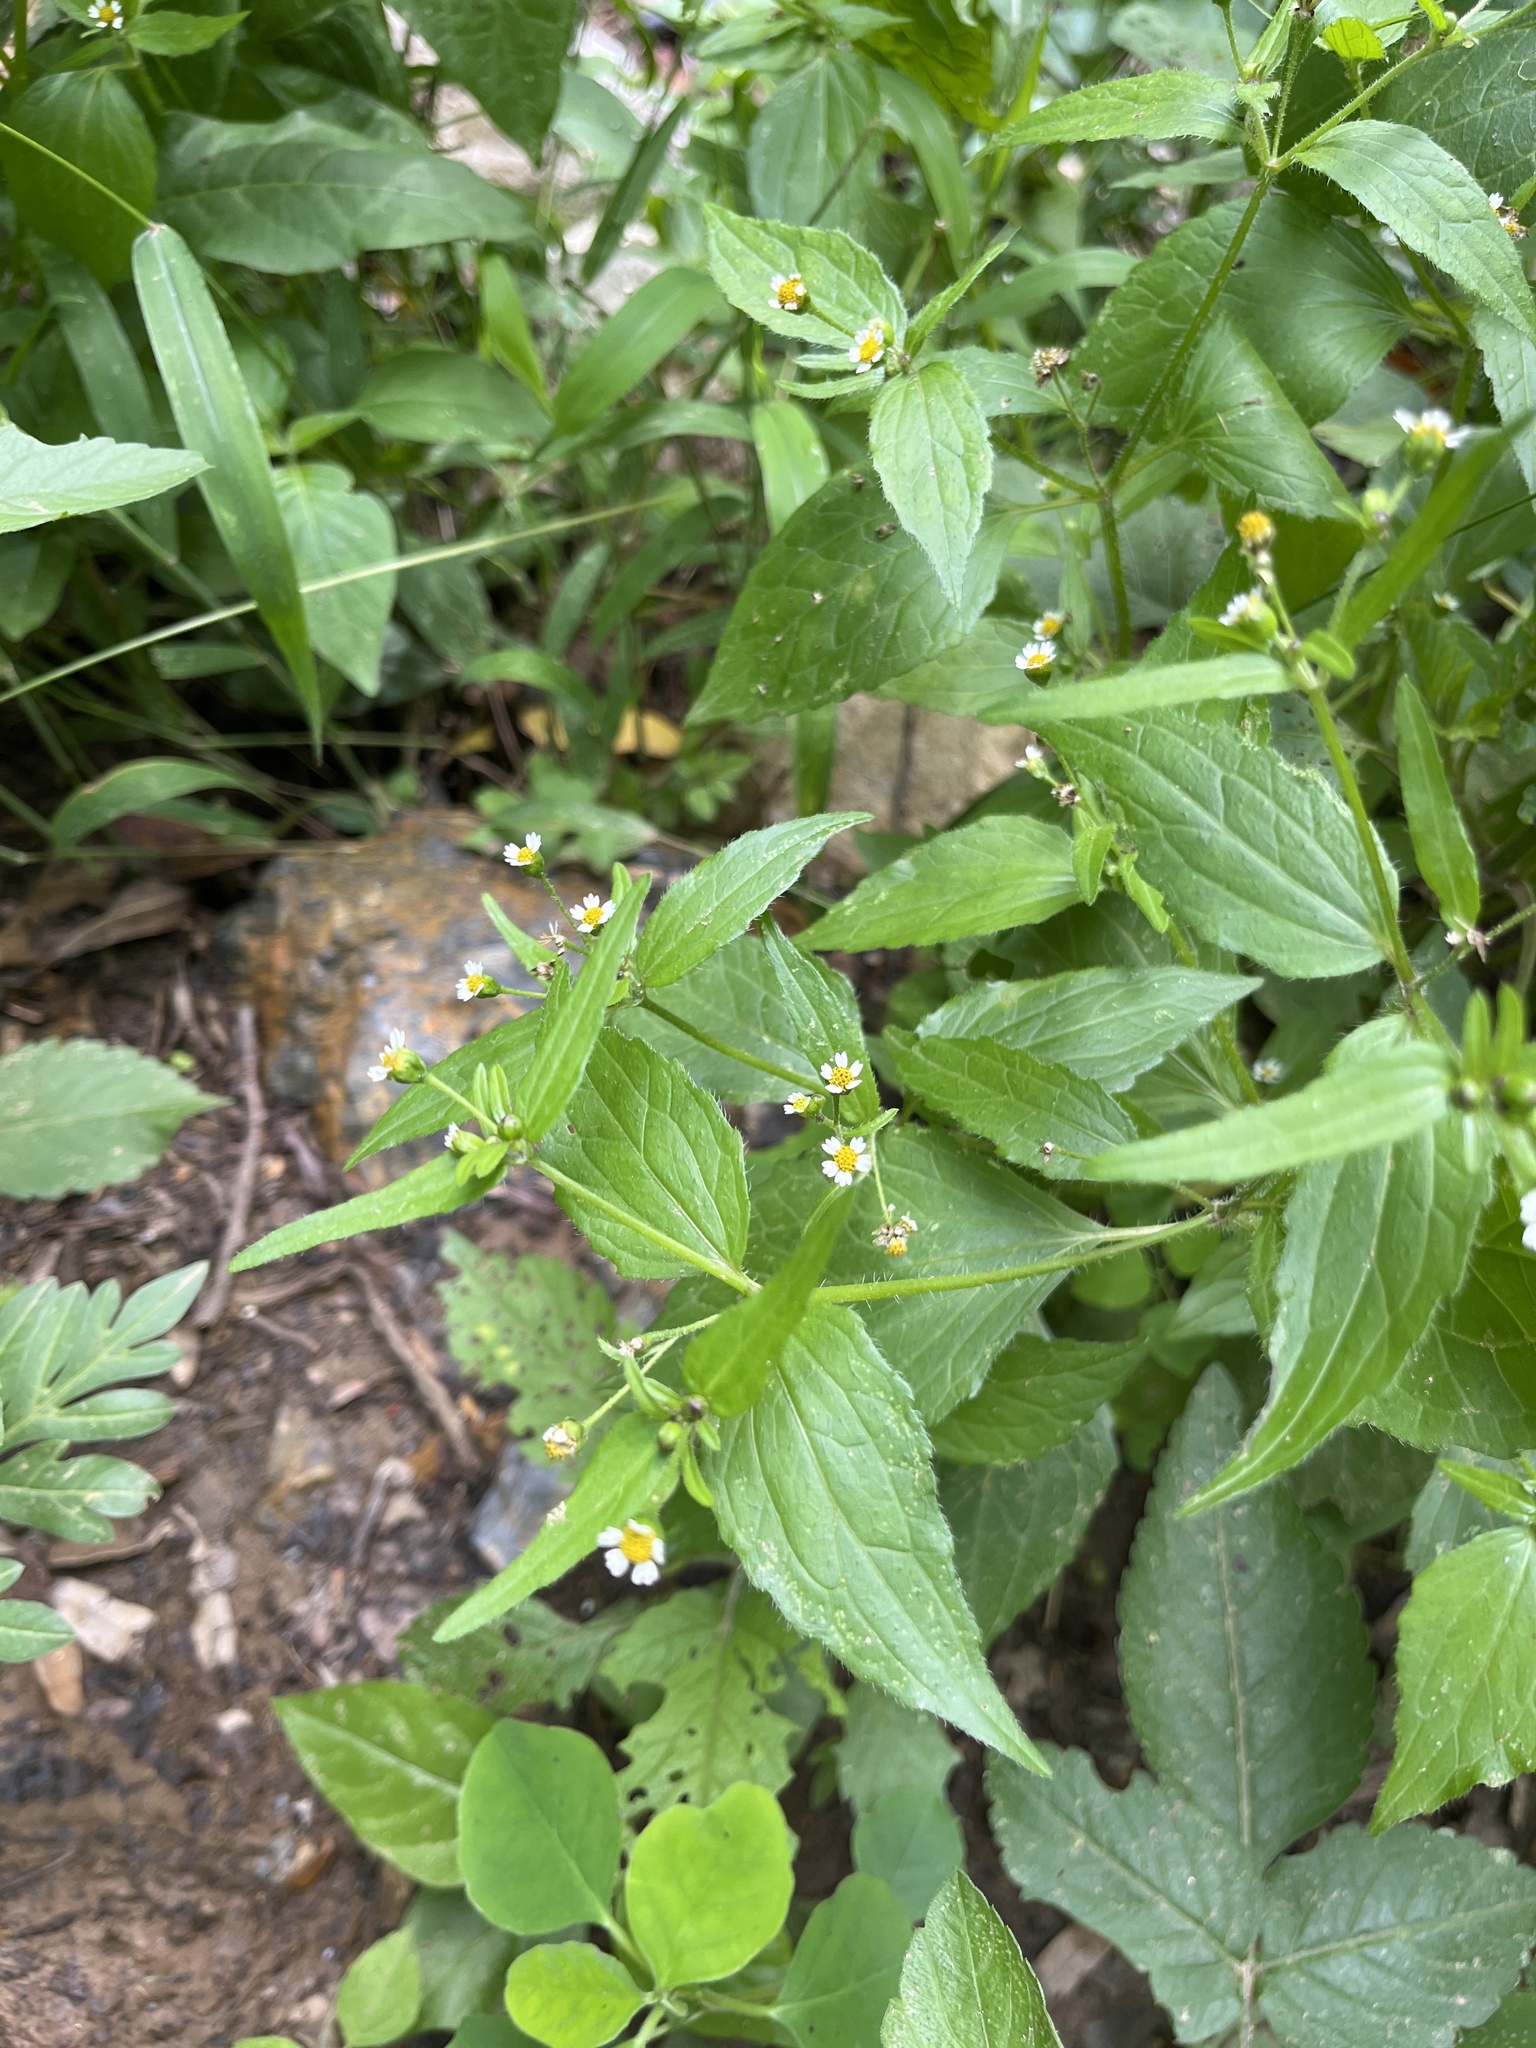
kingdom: Plantae
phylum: Tracheophyta
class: Magnoliopsida
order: Asterales
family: Asteraceae
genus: Galinsoga
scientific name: Galinsoga quadriradiata
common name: Shaggy soldier
